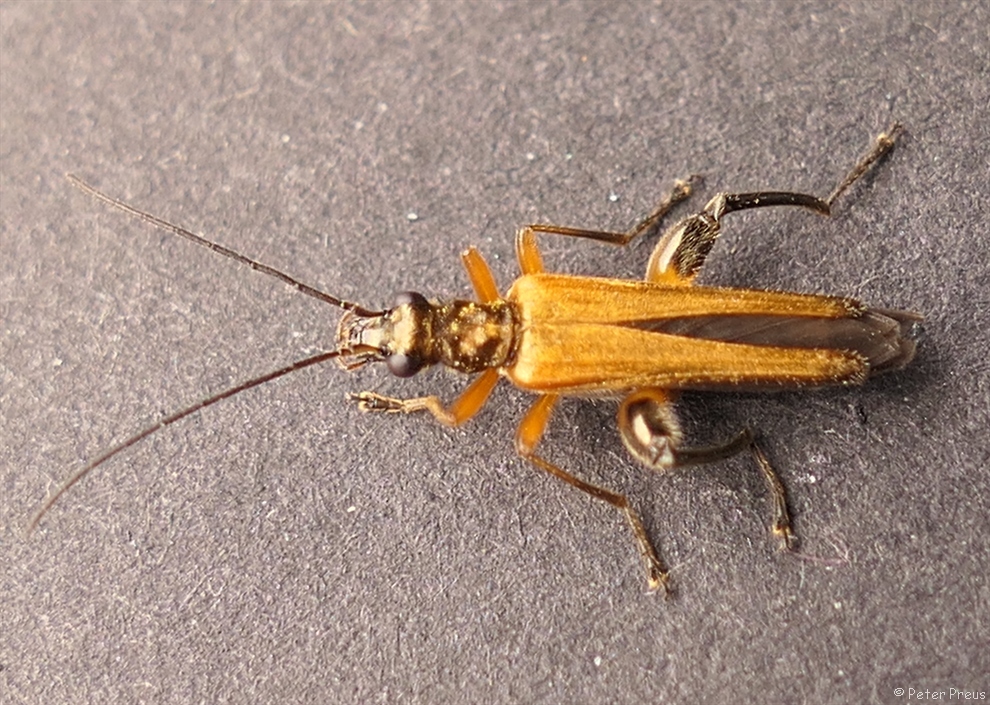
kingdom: Animalia
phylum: Arthropoda
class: Insecta
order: Coleoptera
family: Oedemeridae
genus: Oedemera
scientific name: Oedemera podagrariae
